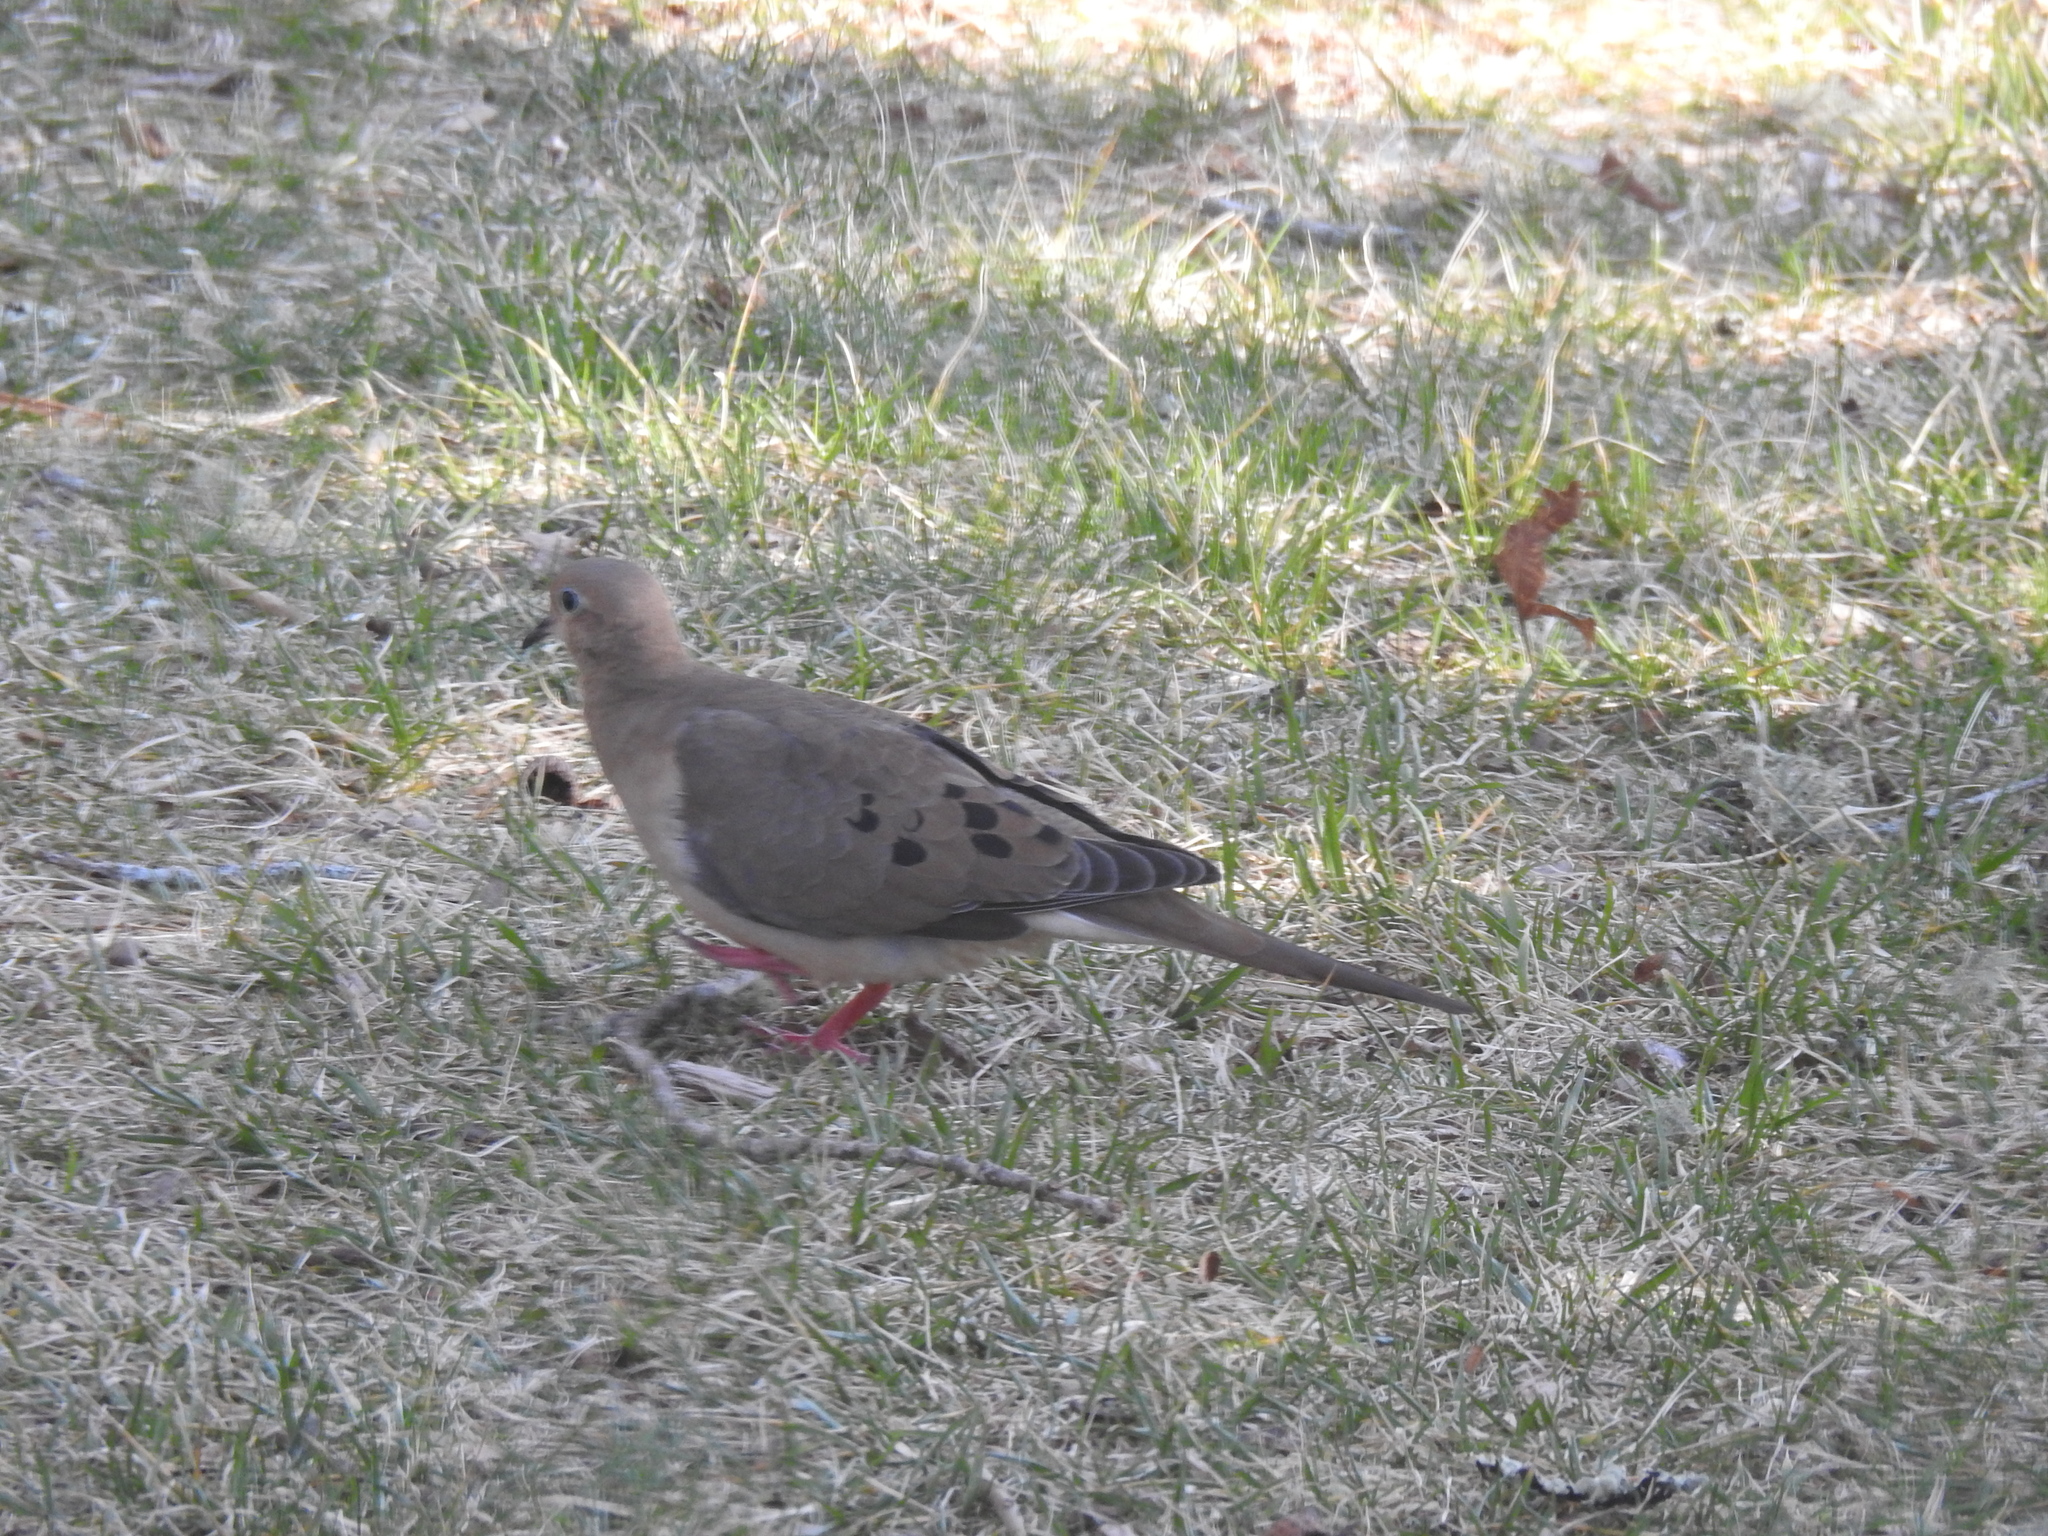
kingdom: Animalia
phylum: Chordata
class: Aves
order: Columbiformes
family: Columbidae
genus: Zenaida
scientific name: Zenaida macroura
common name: Mourning dove
